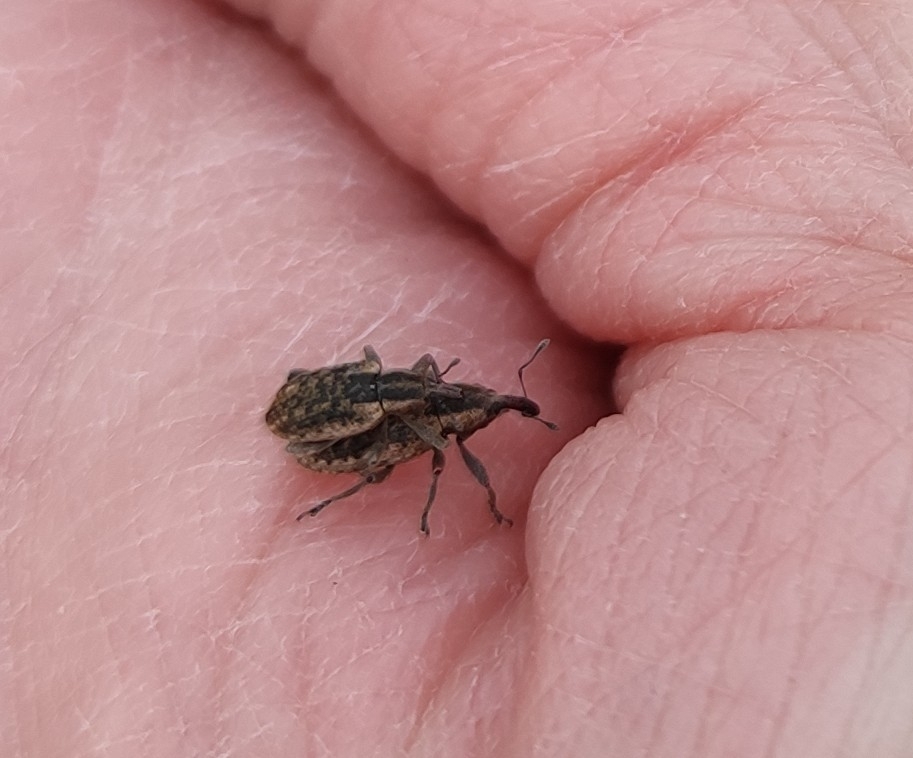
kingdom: Animalia
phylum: Arthropoda
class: Insecta
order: Coleoptera
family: Curculionidae
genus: Hypera
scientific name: Hypera conmaculata
